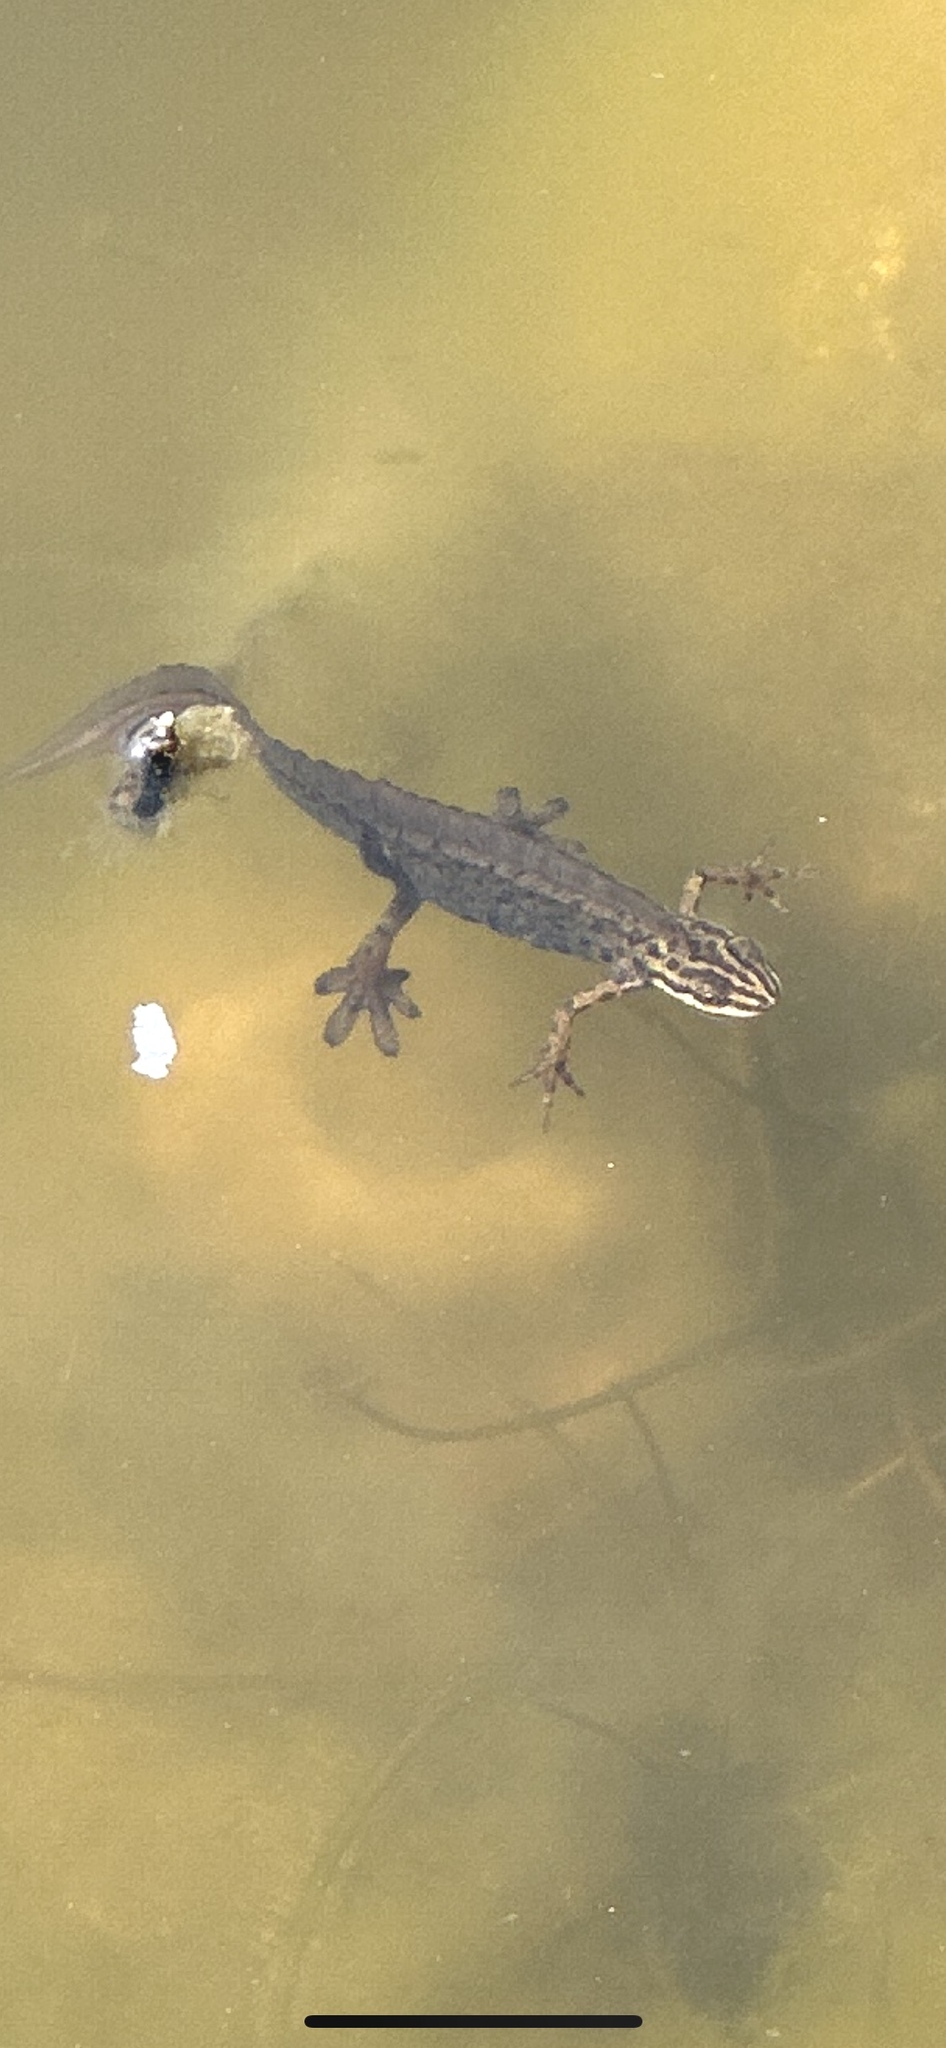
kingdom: Animalia
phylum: Chordata
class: Amphibia
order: Caudata
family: Salamandridae
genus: Lissotriton
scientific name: Lissotriton vulgaris
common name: Smooth newt
